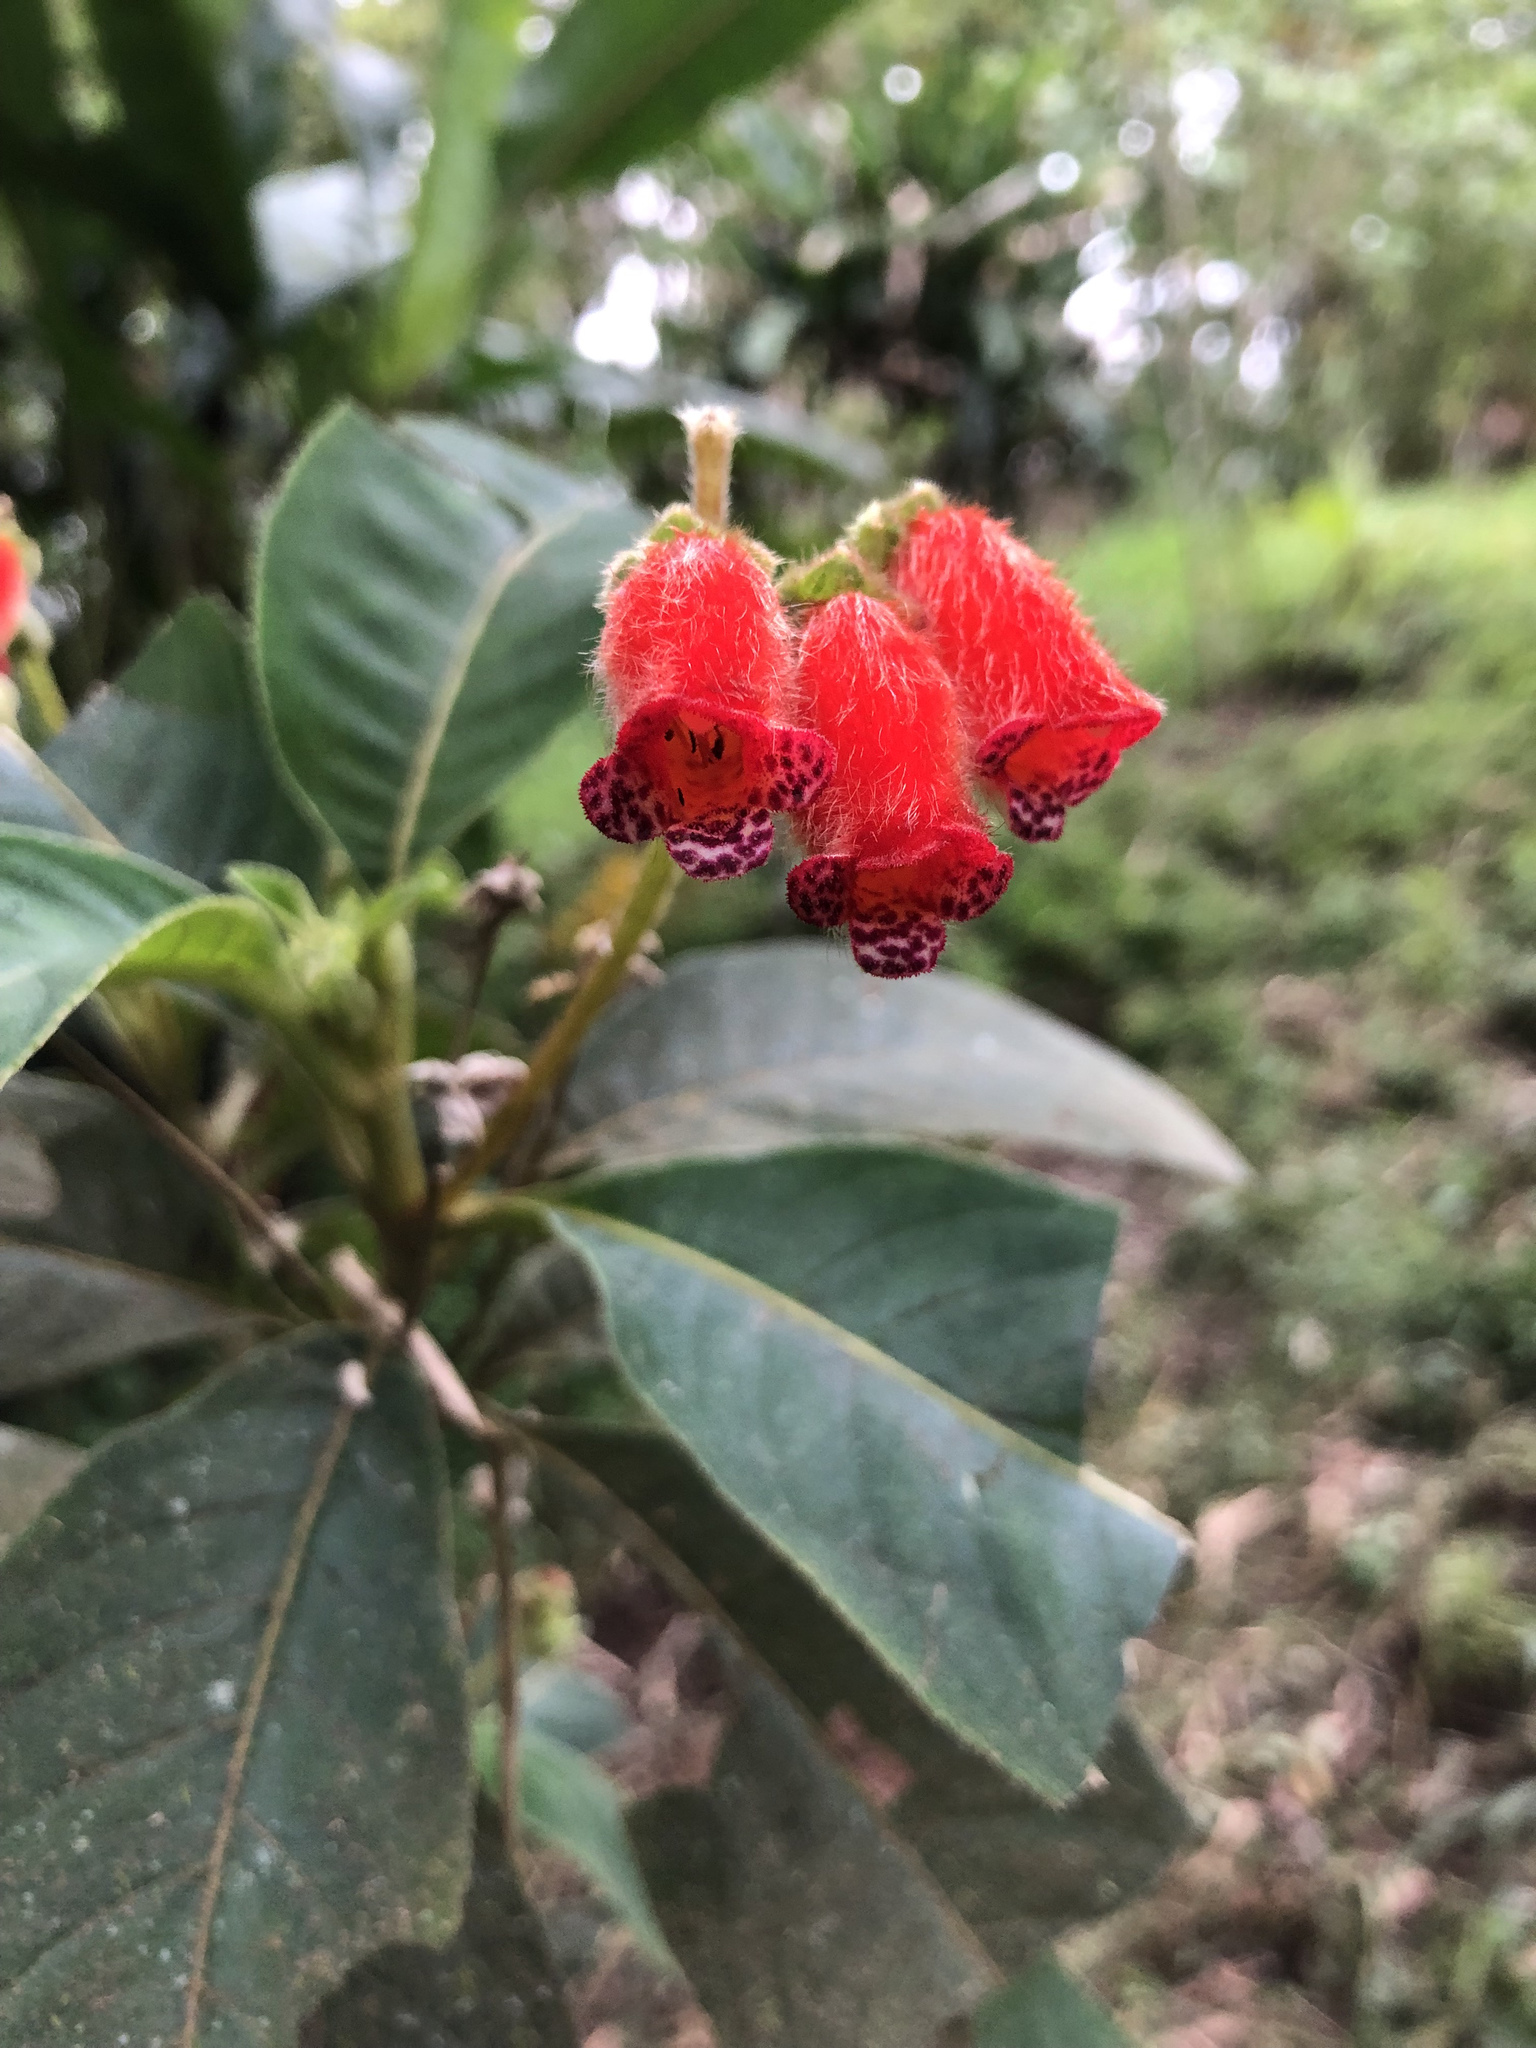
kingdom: Plantae
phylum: Tracheophyta
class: Magnoliopsida
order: Lamiales
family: Gesneriaceae
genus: Pearcea
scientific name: Pearcea reticulata
